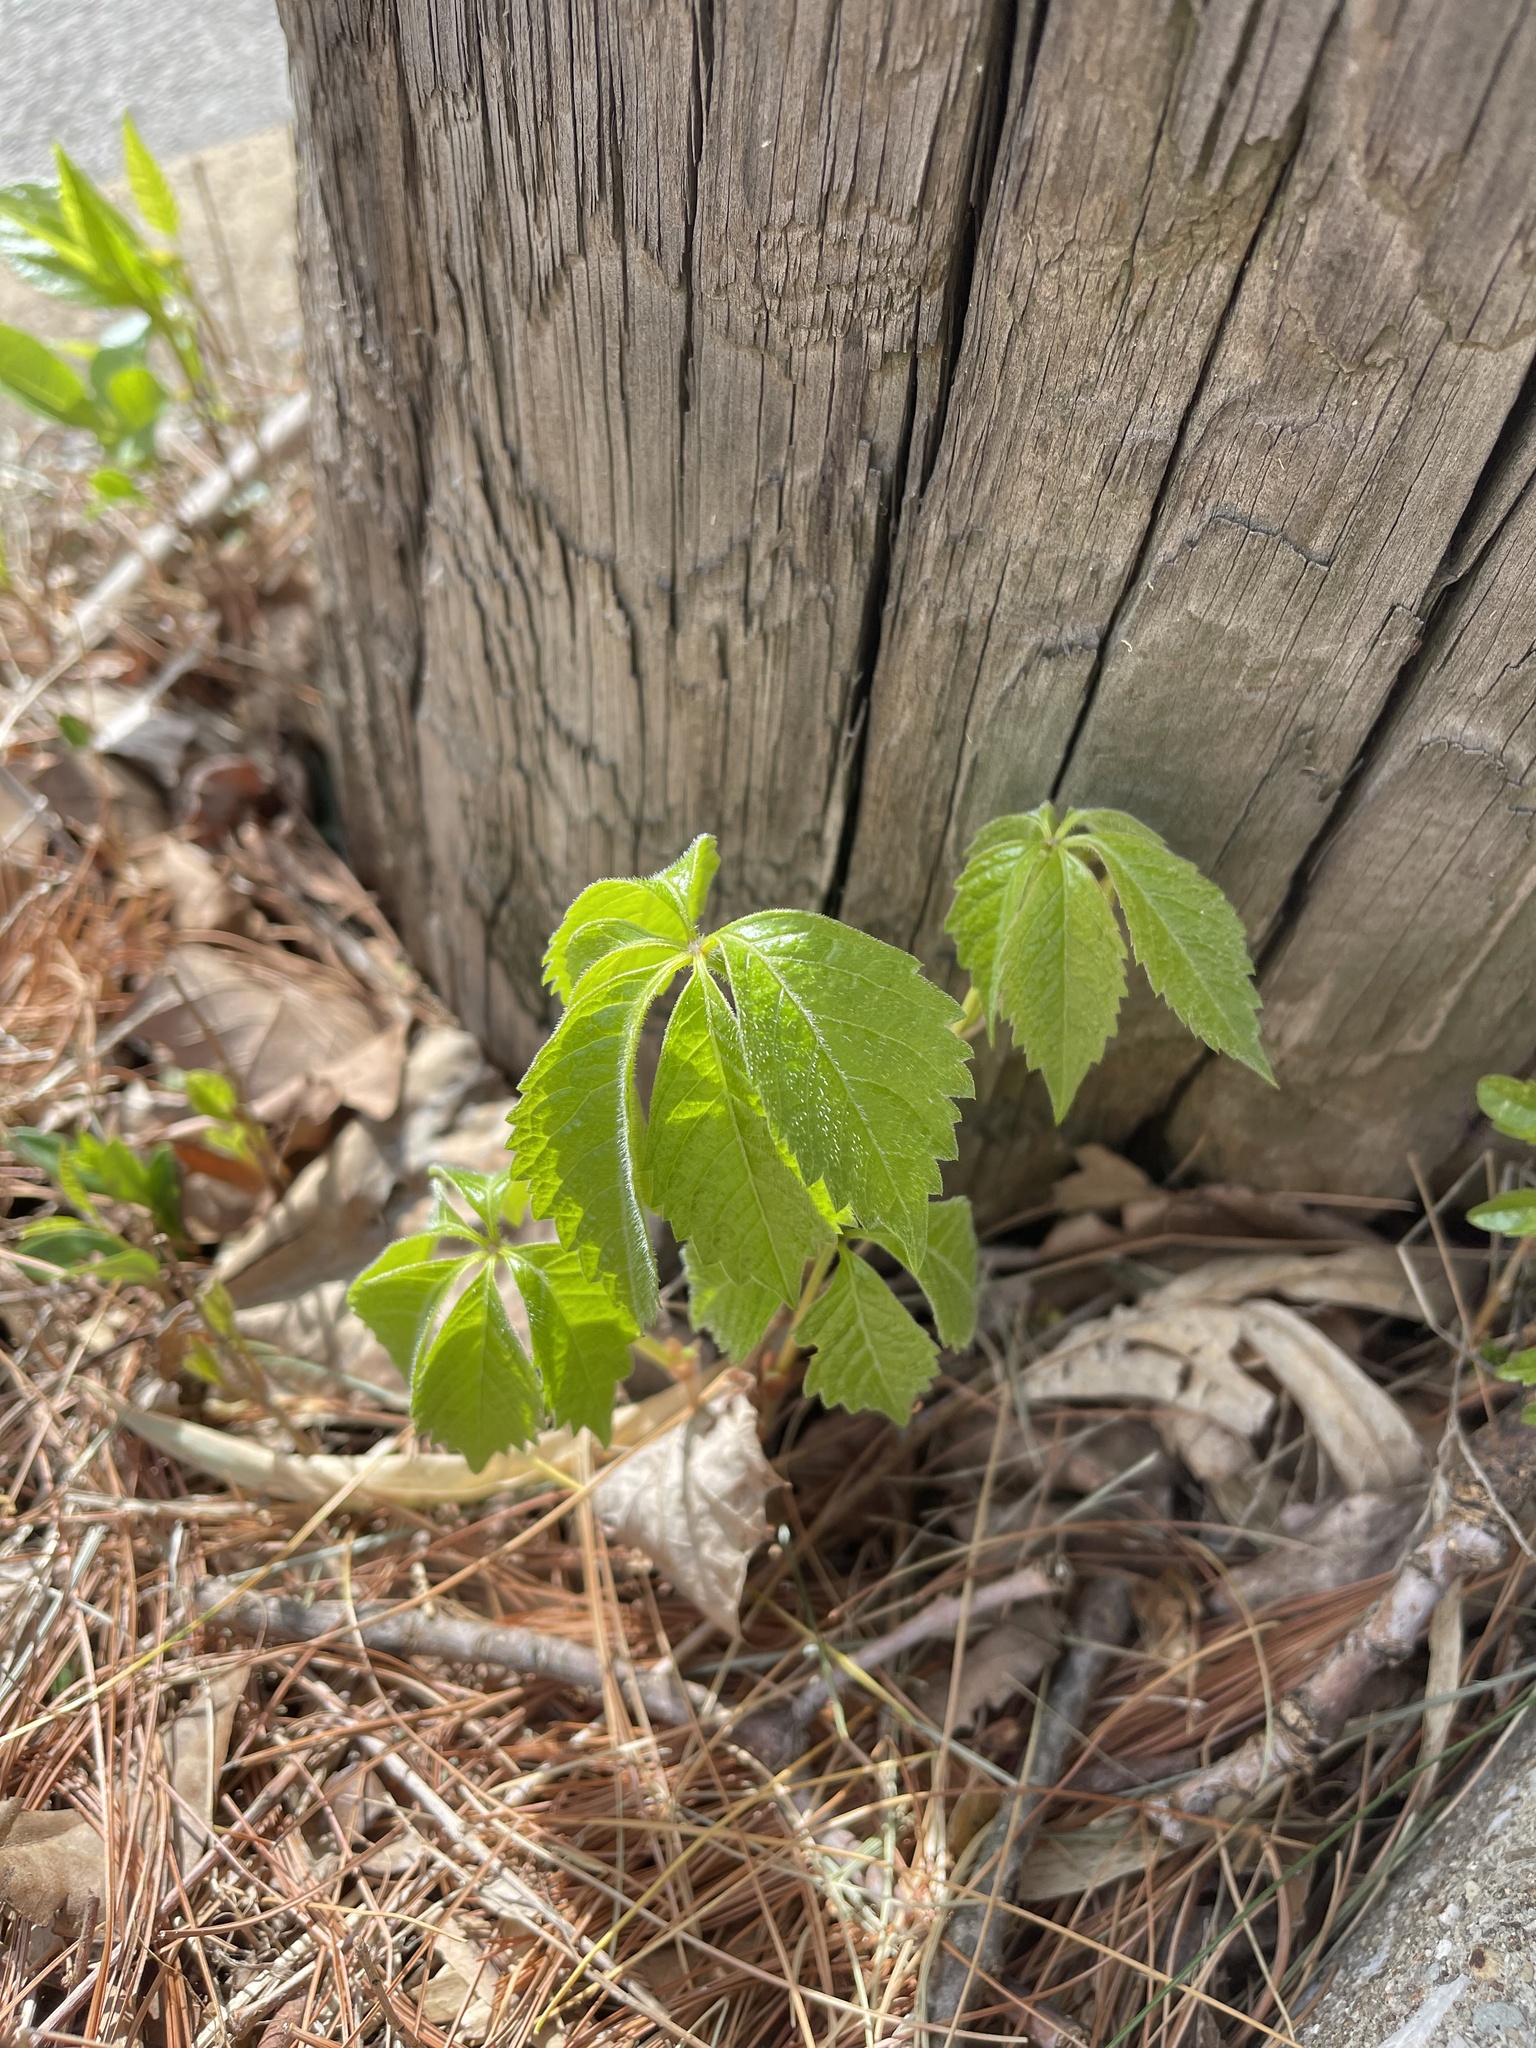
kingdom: Plantae
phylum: Tracheophyta
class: Magnoliopsida
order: Vitales
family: Vitaceae
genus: Parthenocissus
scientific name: Parthenocissus quinquefolia
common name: Virginia-creeper
